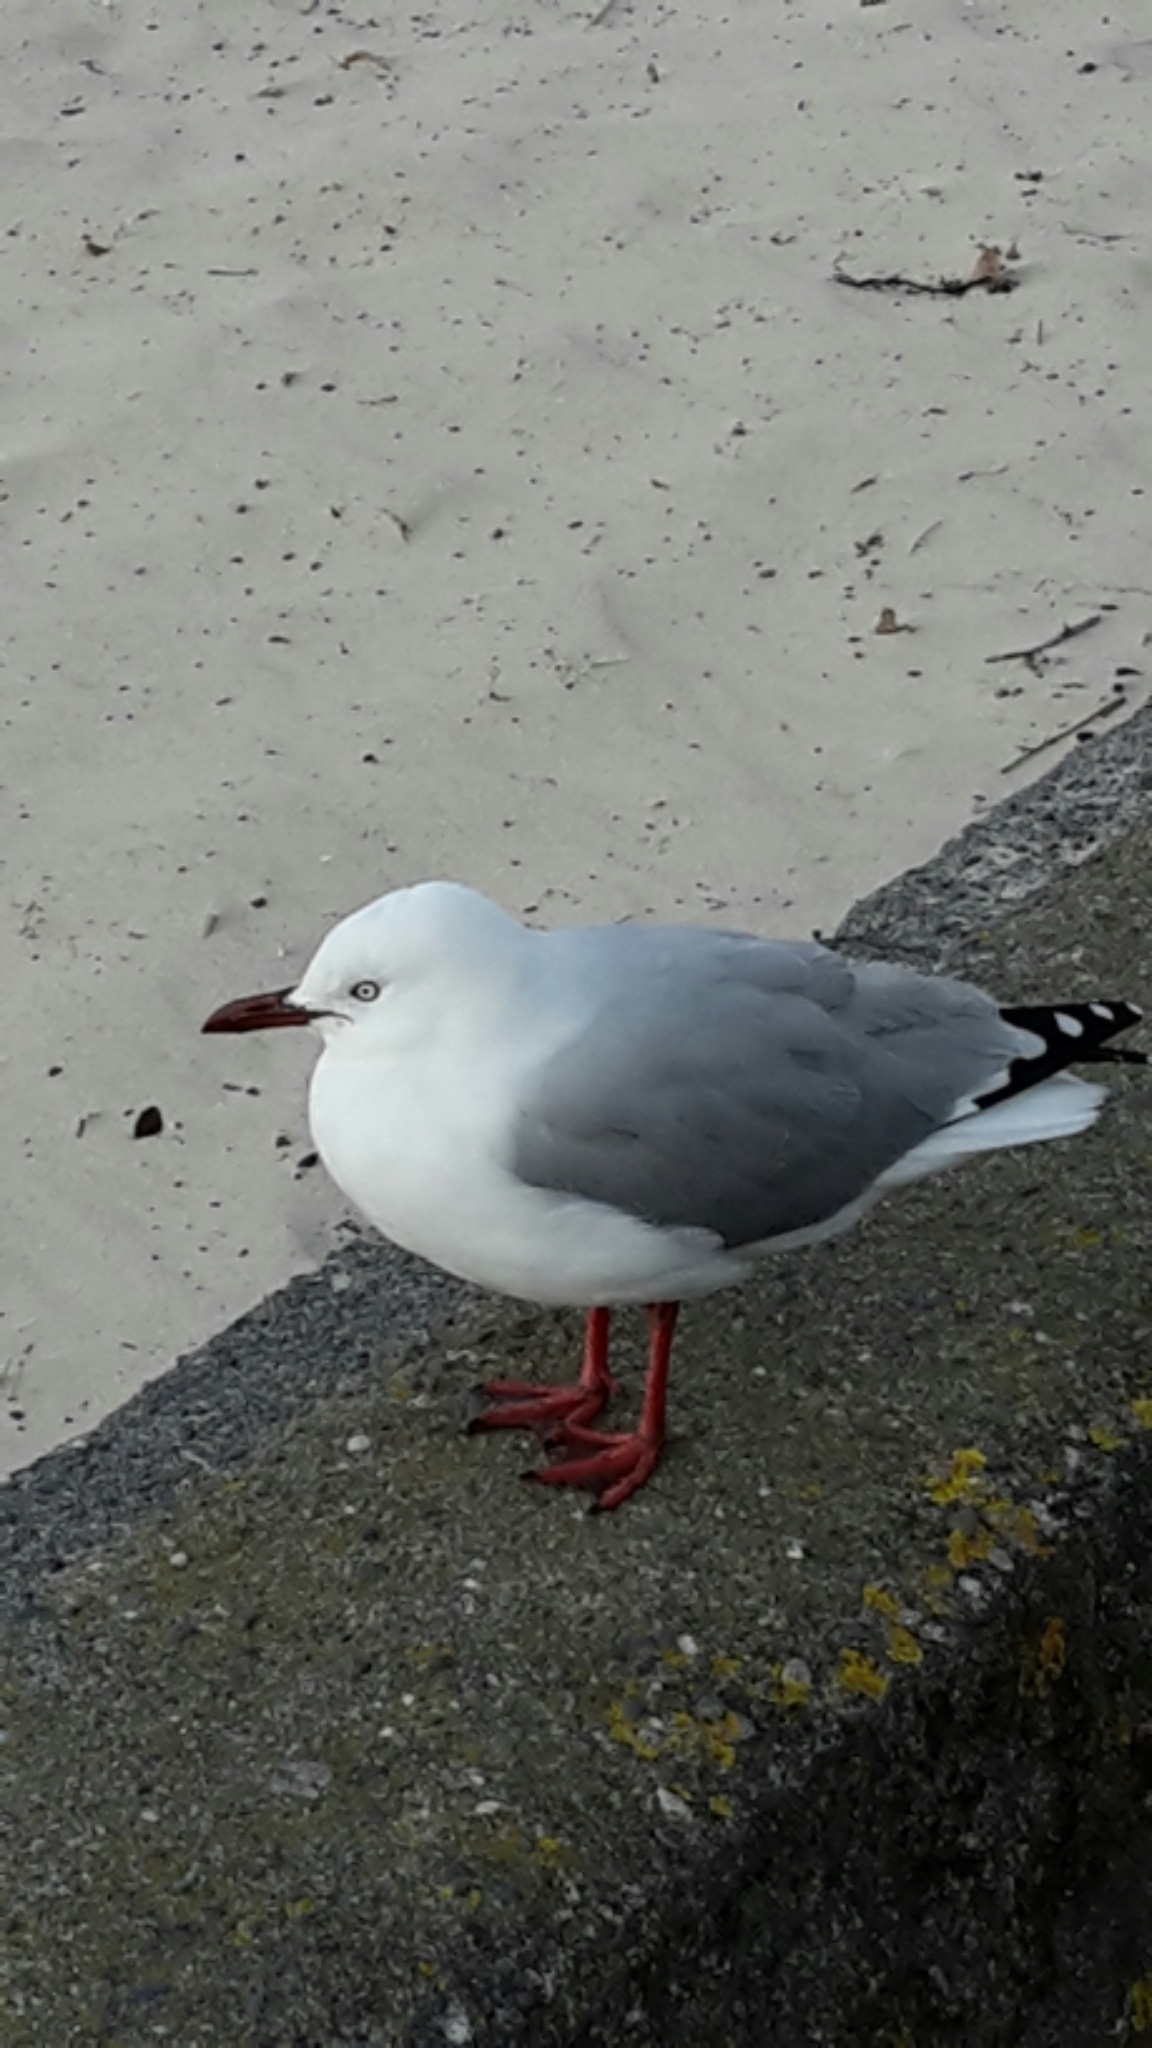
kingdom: Animalia
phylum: Chordata
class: Aves
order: Charadriiformes
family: Laridae
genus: Chroicocephalus
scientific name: Chroicocephalus novaehollandiae
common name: Silver gull
